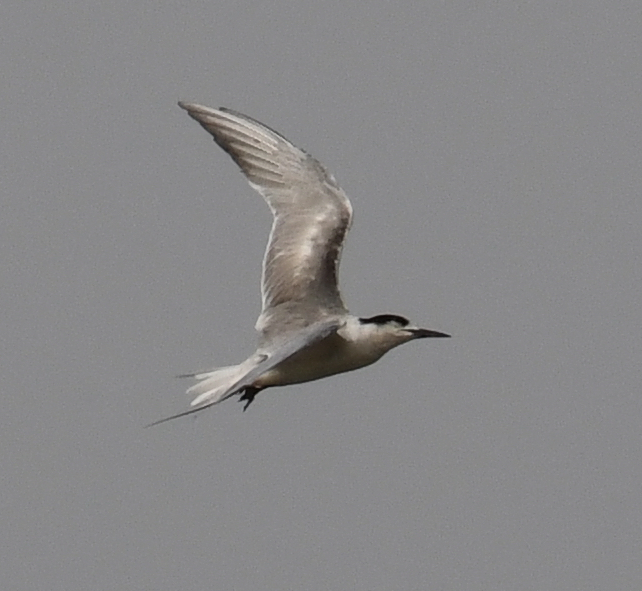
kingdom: Animalia
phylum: Chordata
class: Aves
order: Charadriiformes
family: Laridae
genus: Sterna
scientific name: Sterna hirundo
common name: Common tern
